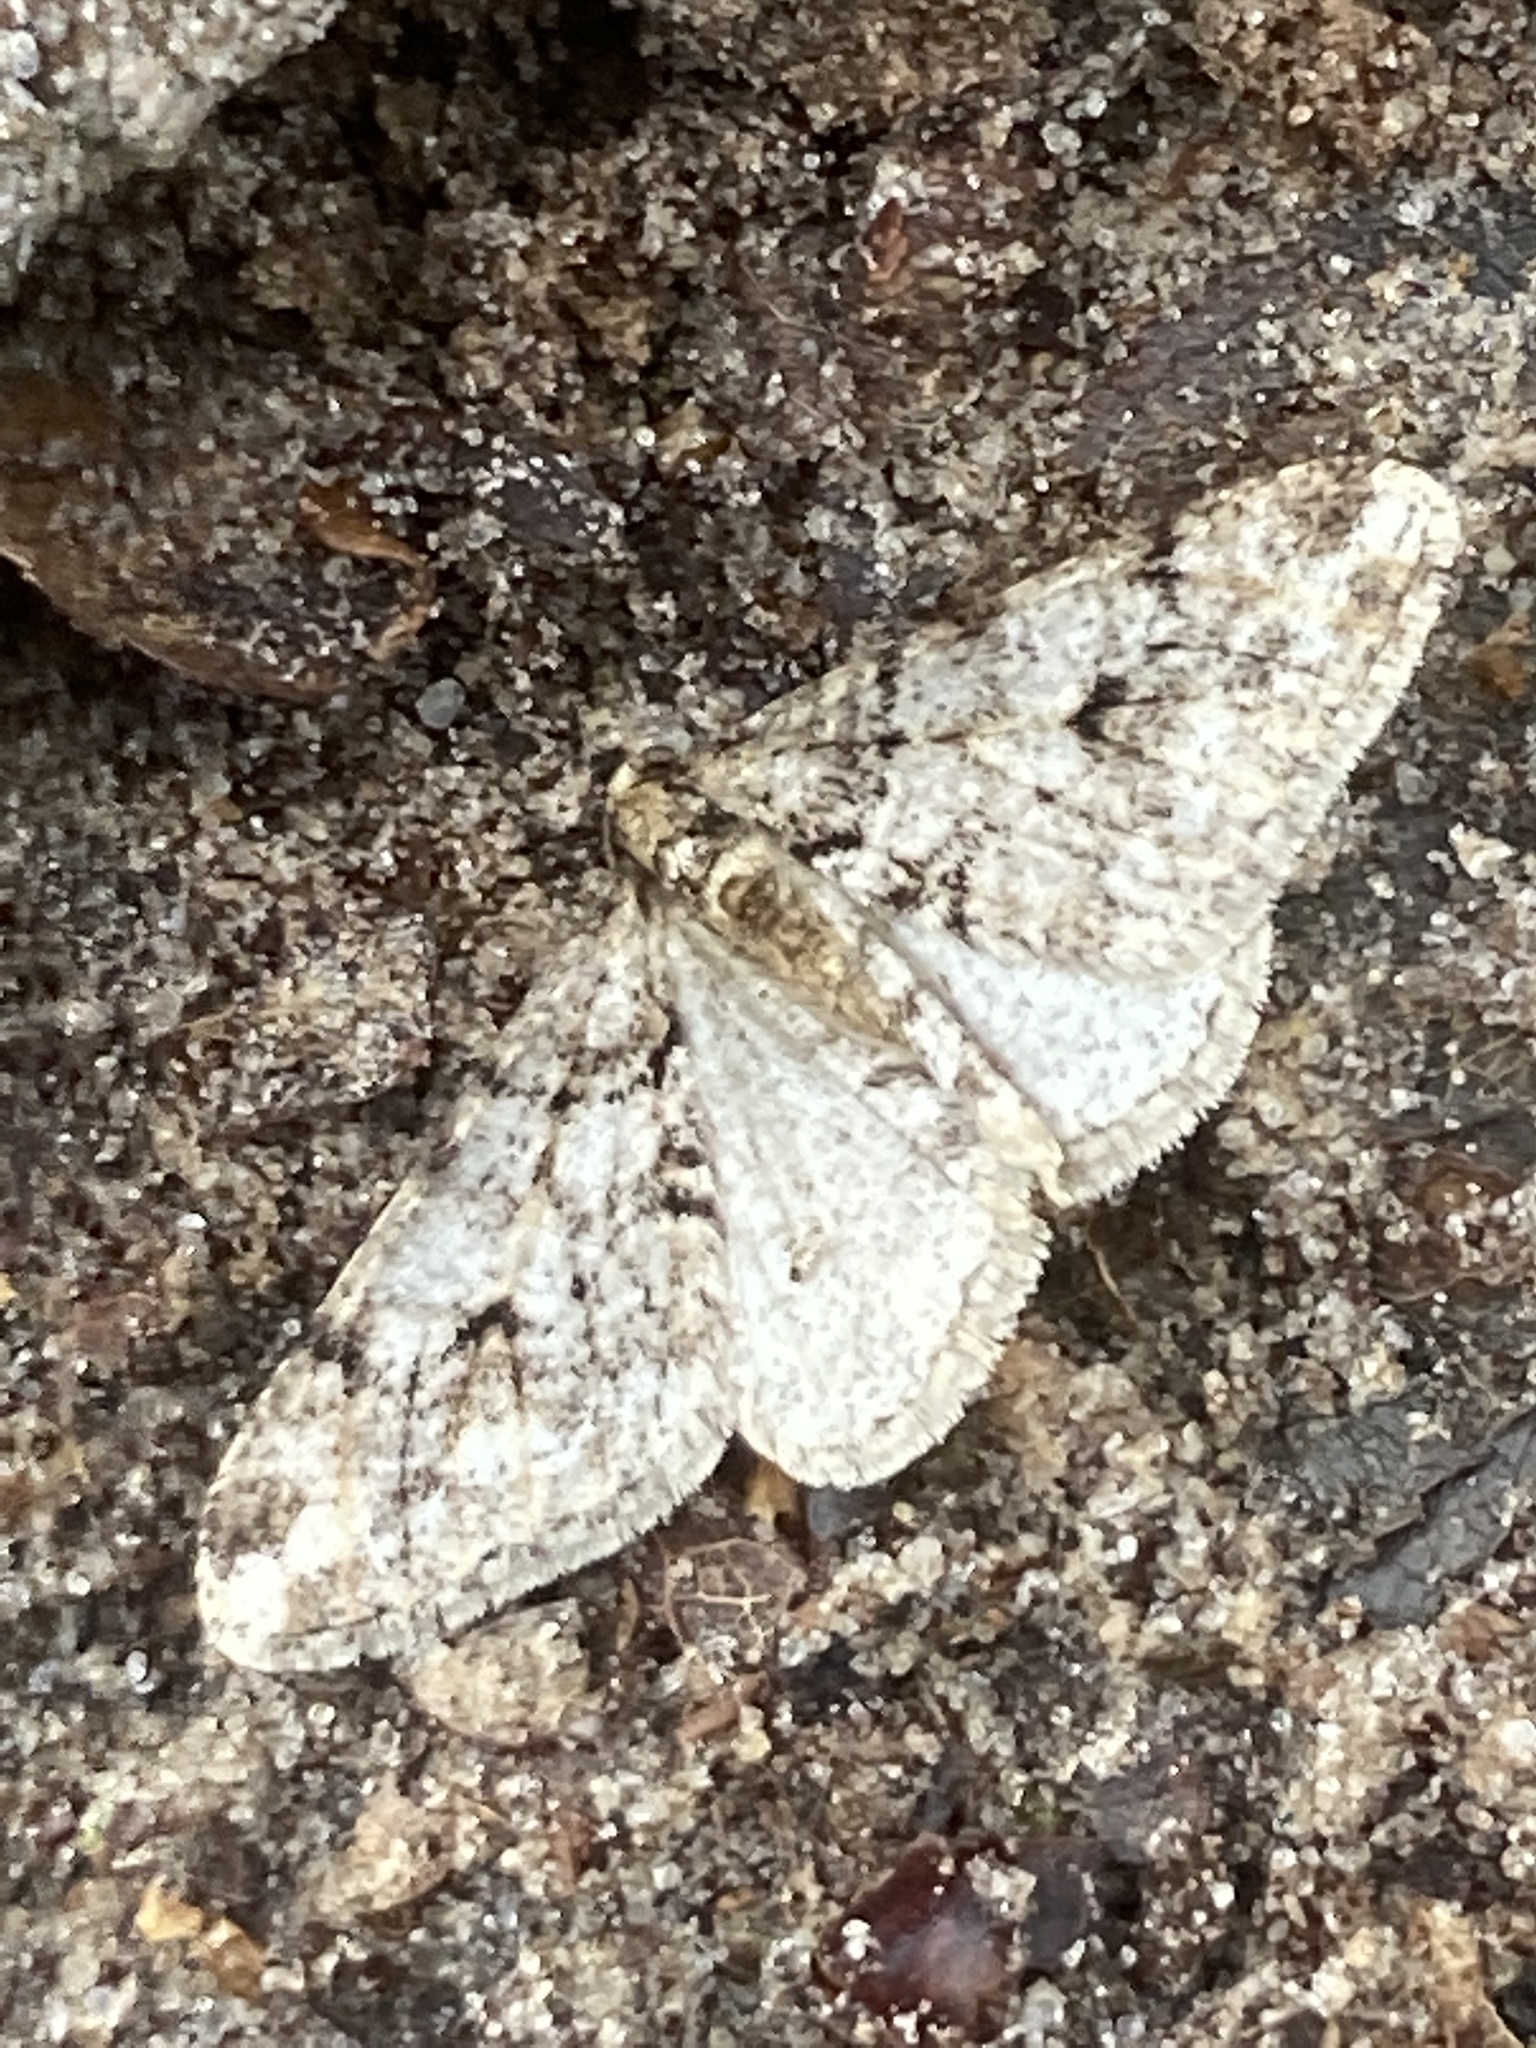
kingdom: Animalia
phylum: Arthropoda
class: Insecta
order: Lepidoptera
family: Geometridae
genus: Agriopis
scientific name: Agriopis leucophaearia
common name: Spring usher
